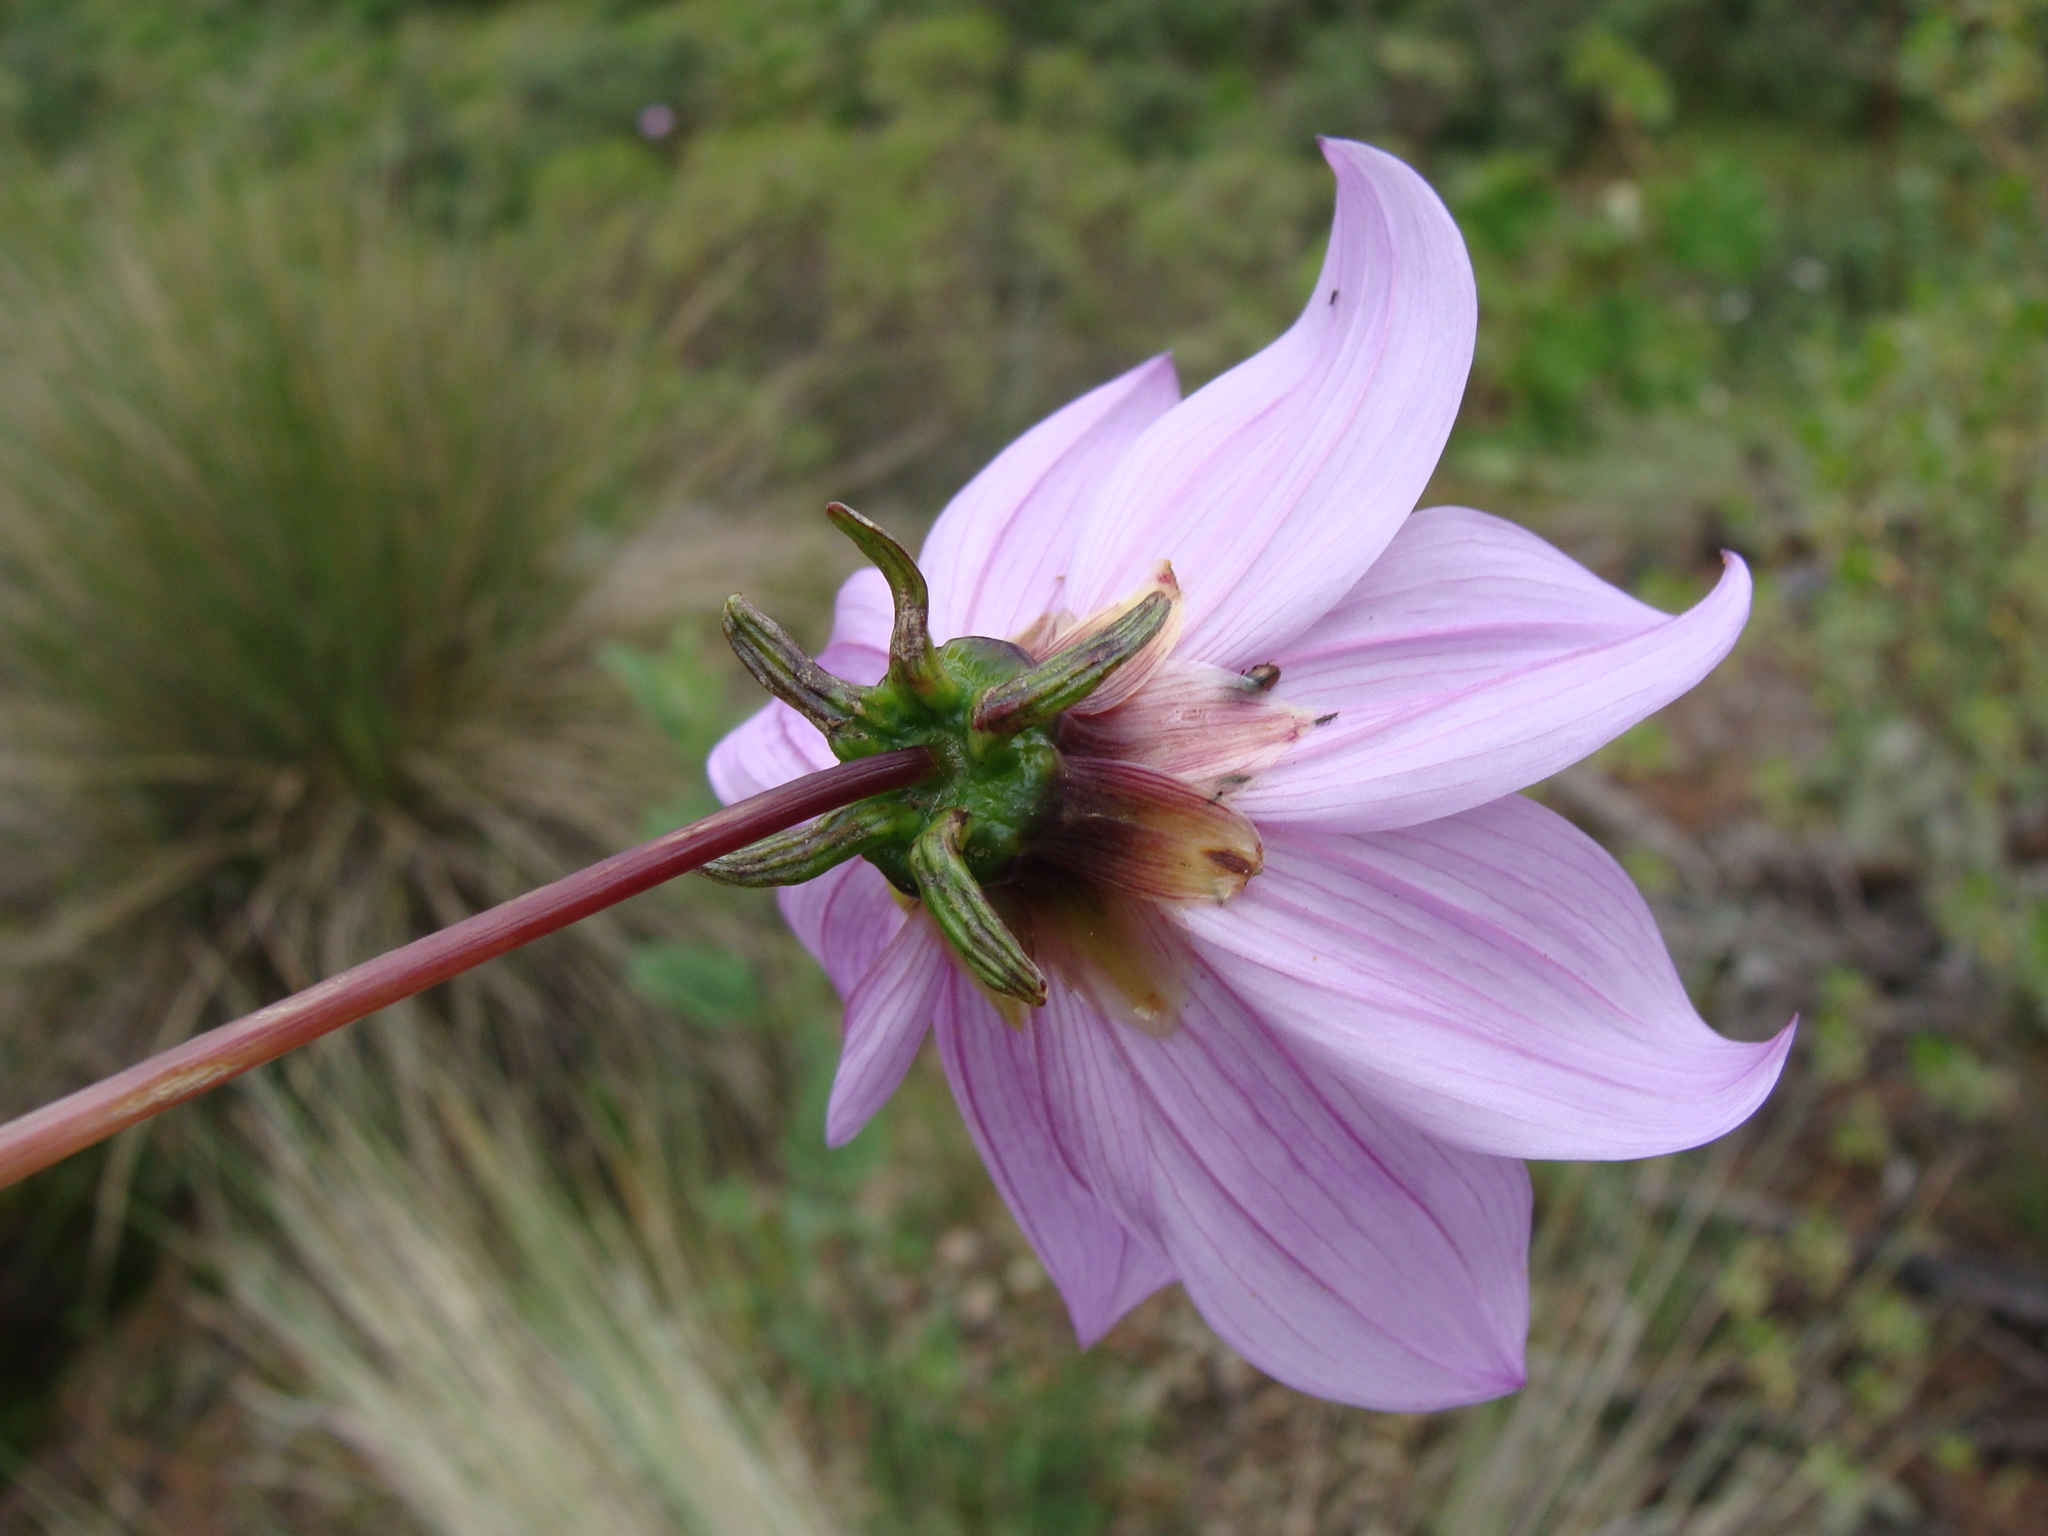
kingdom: Plantae
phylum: Tracheophyta
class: Magnoliopsida
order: Asterales
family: Asteraceae
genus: Dahlia
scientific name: Dahlia merckii
